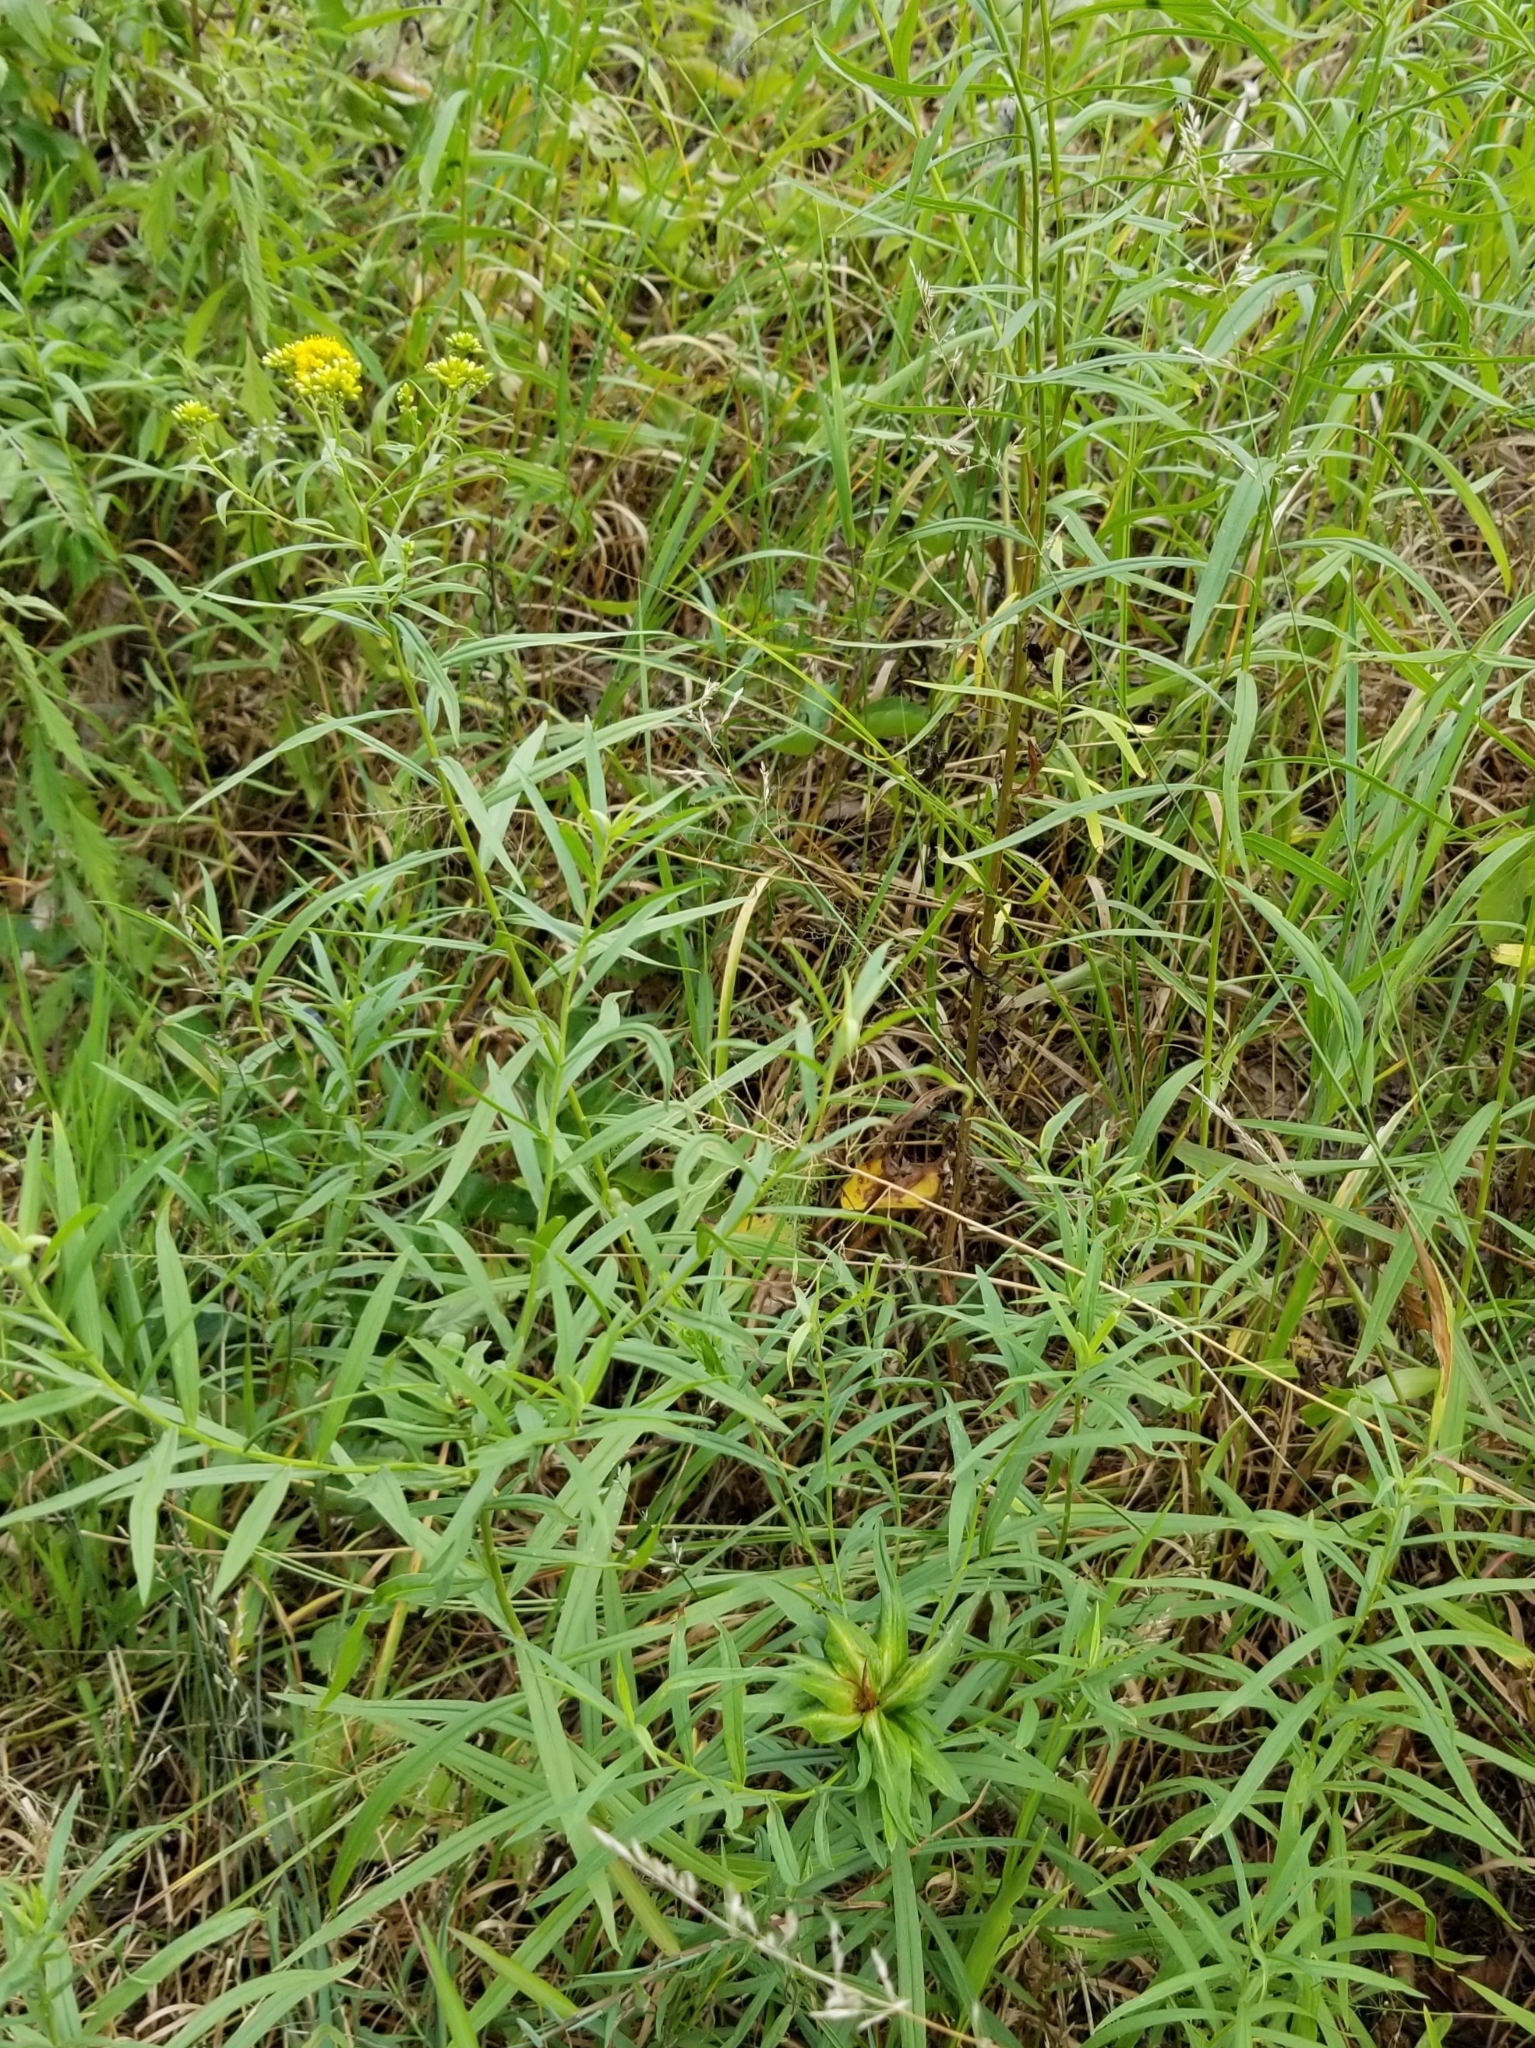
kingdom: Plantae
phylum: Tracheophyta
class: Magnoliopsida
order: Asterales
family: Asteraceae
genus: Euthamia
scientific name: Euthamia graminifolia
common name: Common goldentop
